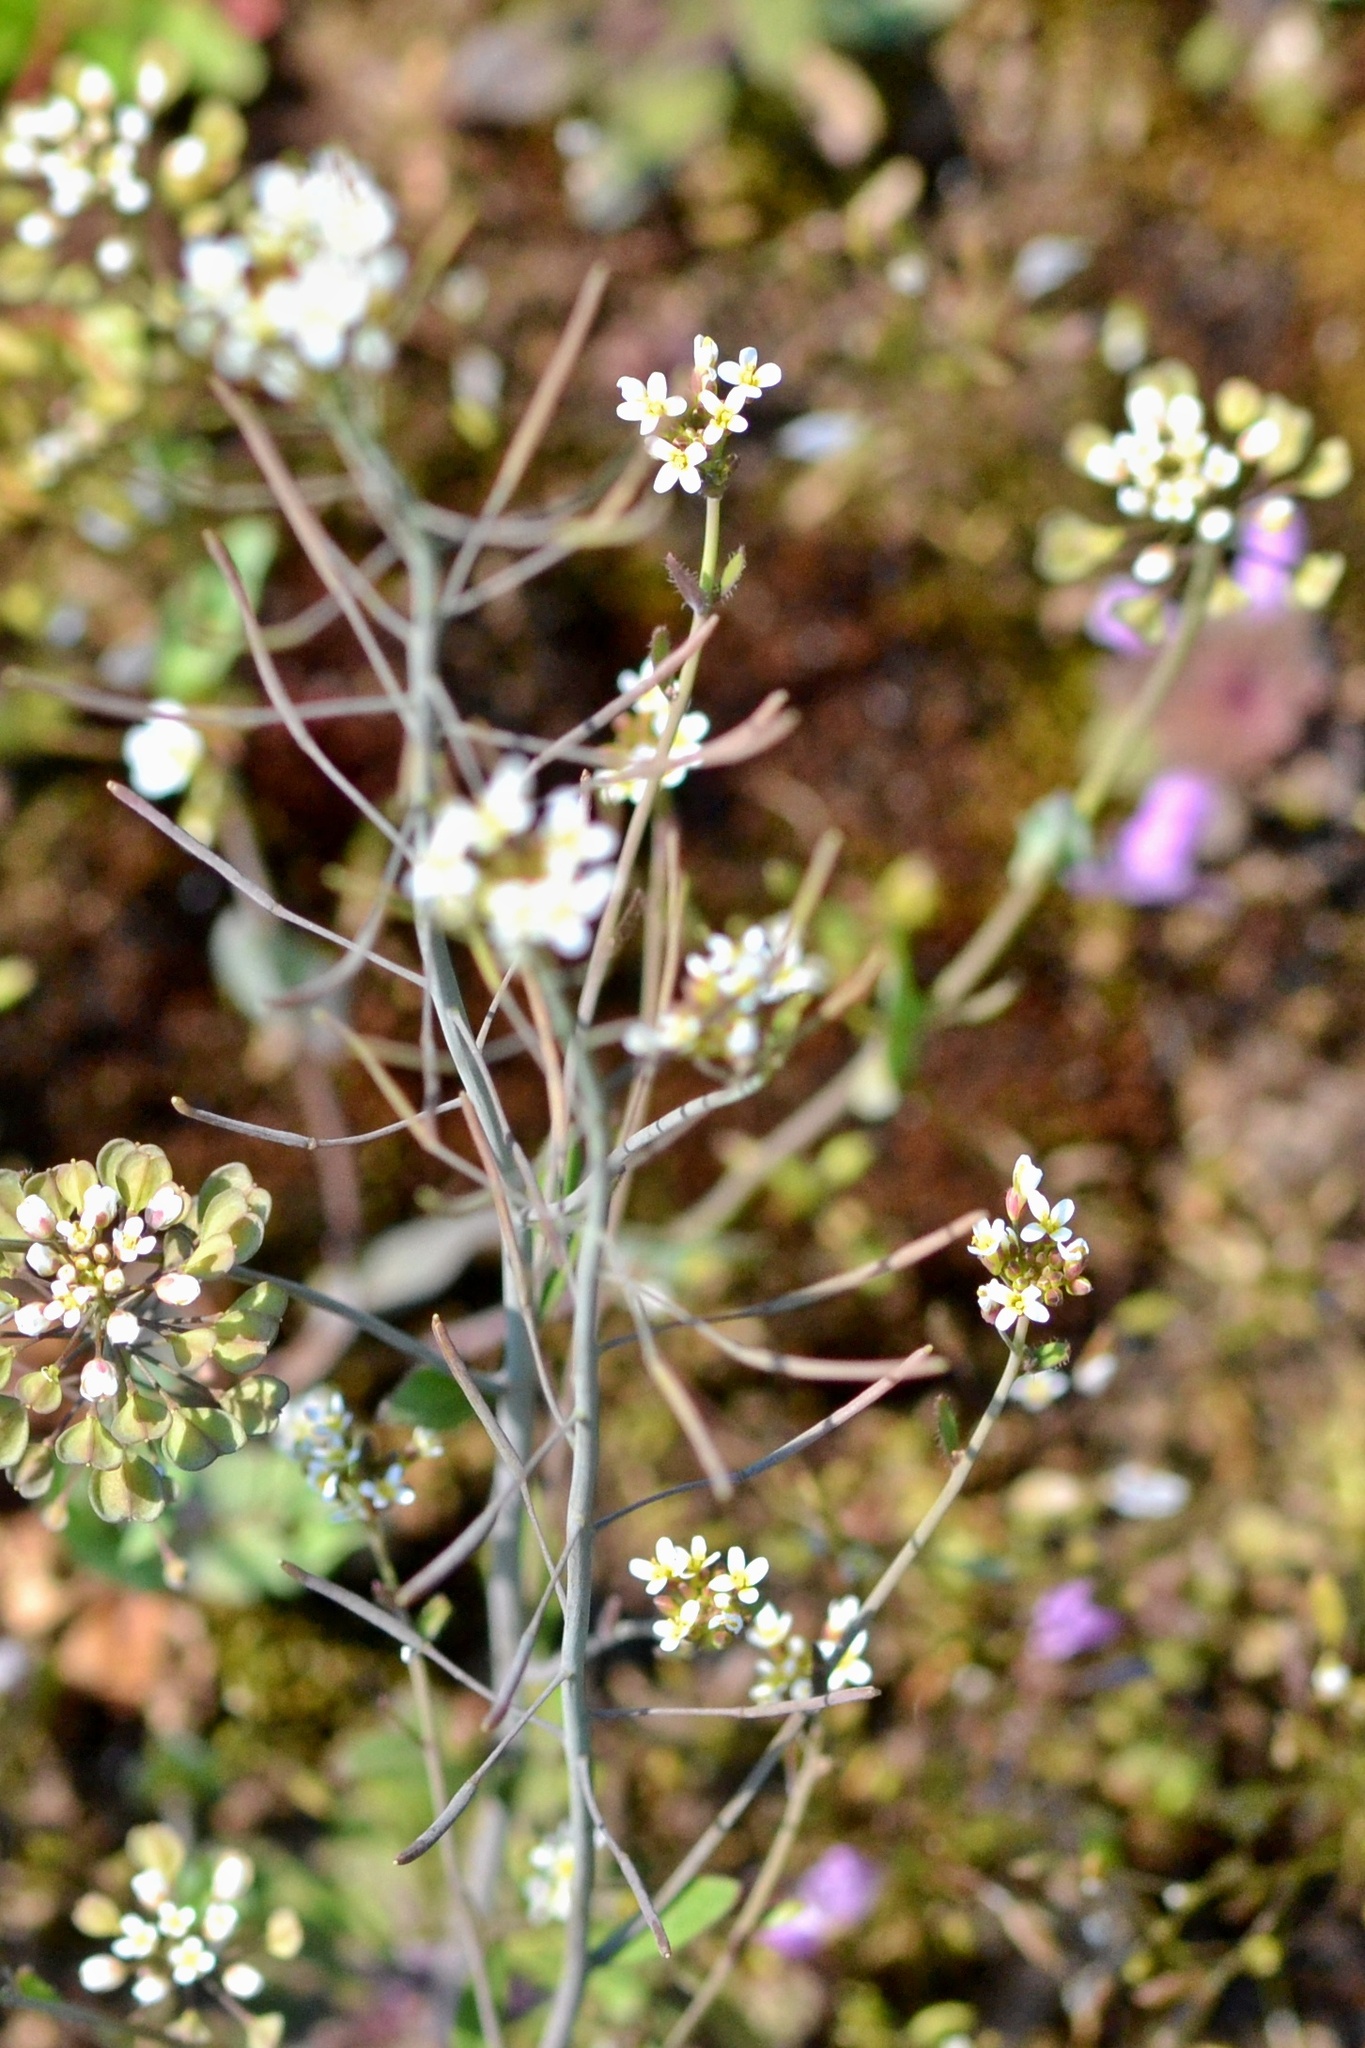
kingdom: Plantae
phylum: Tracheophyta
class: Magnoliopsida
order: Brassicales
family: Brassicaceae
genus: Arabidopsis
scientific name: Arabidopsis thaliana
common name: Thale cress
